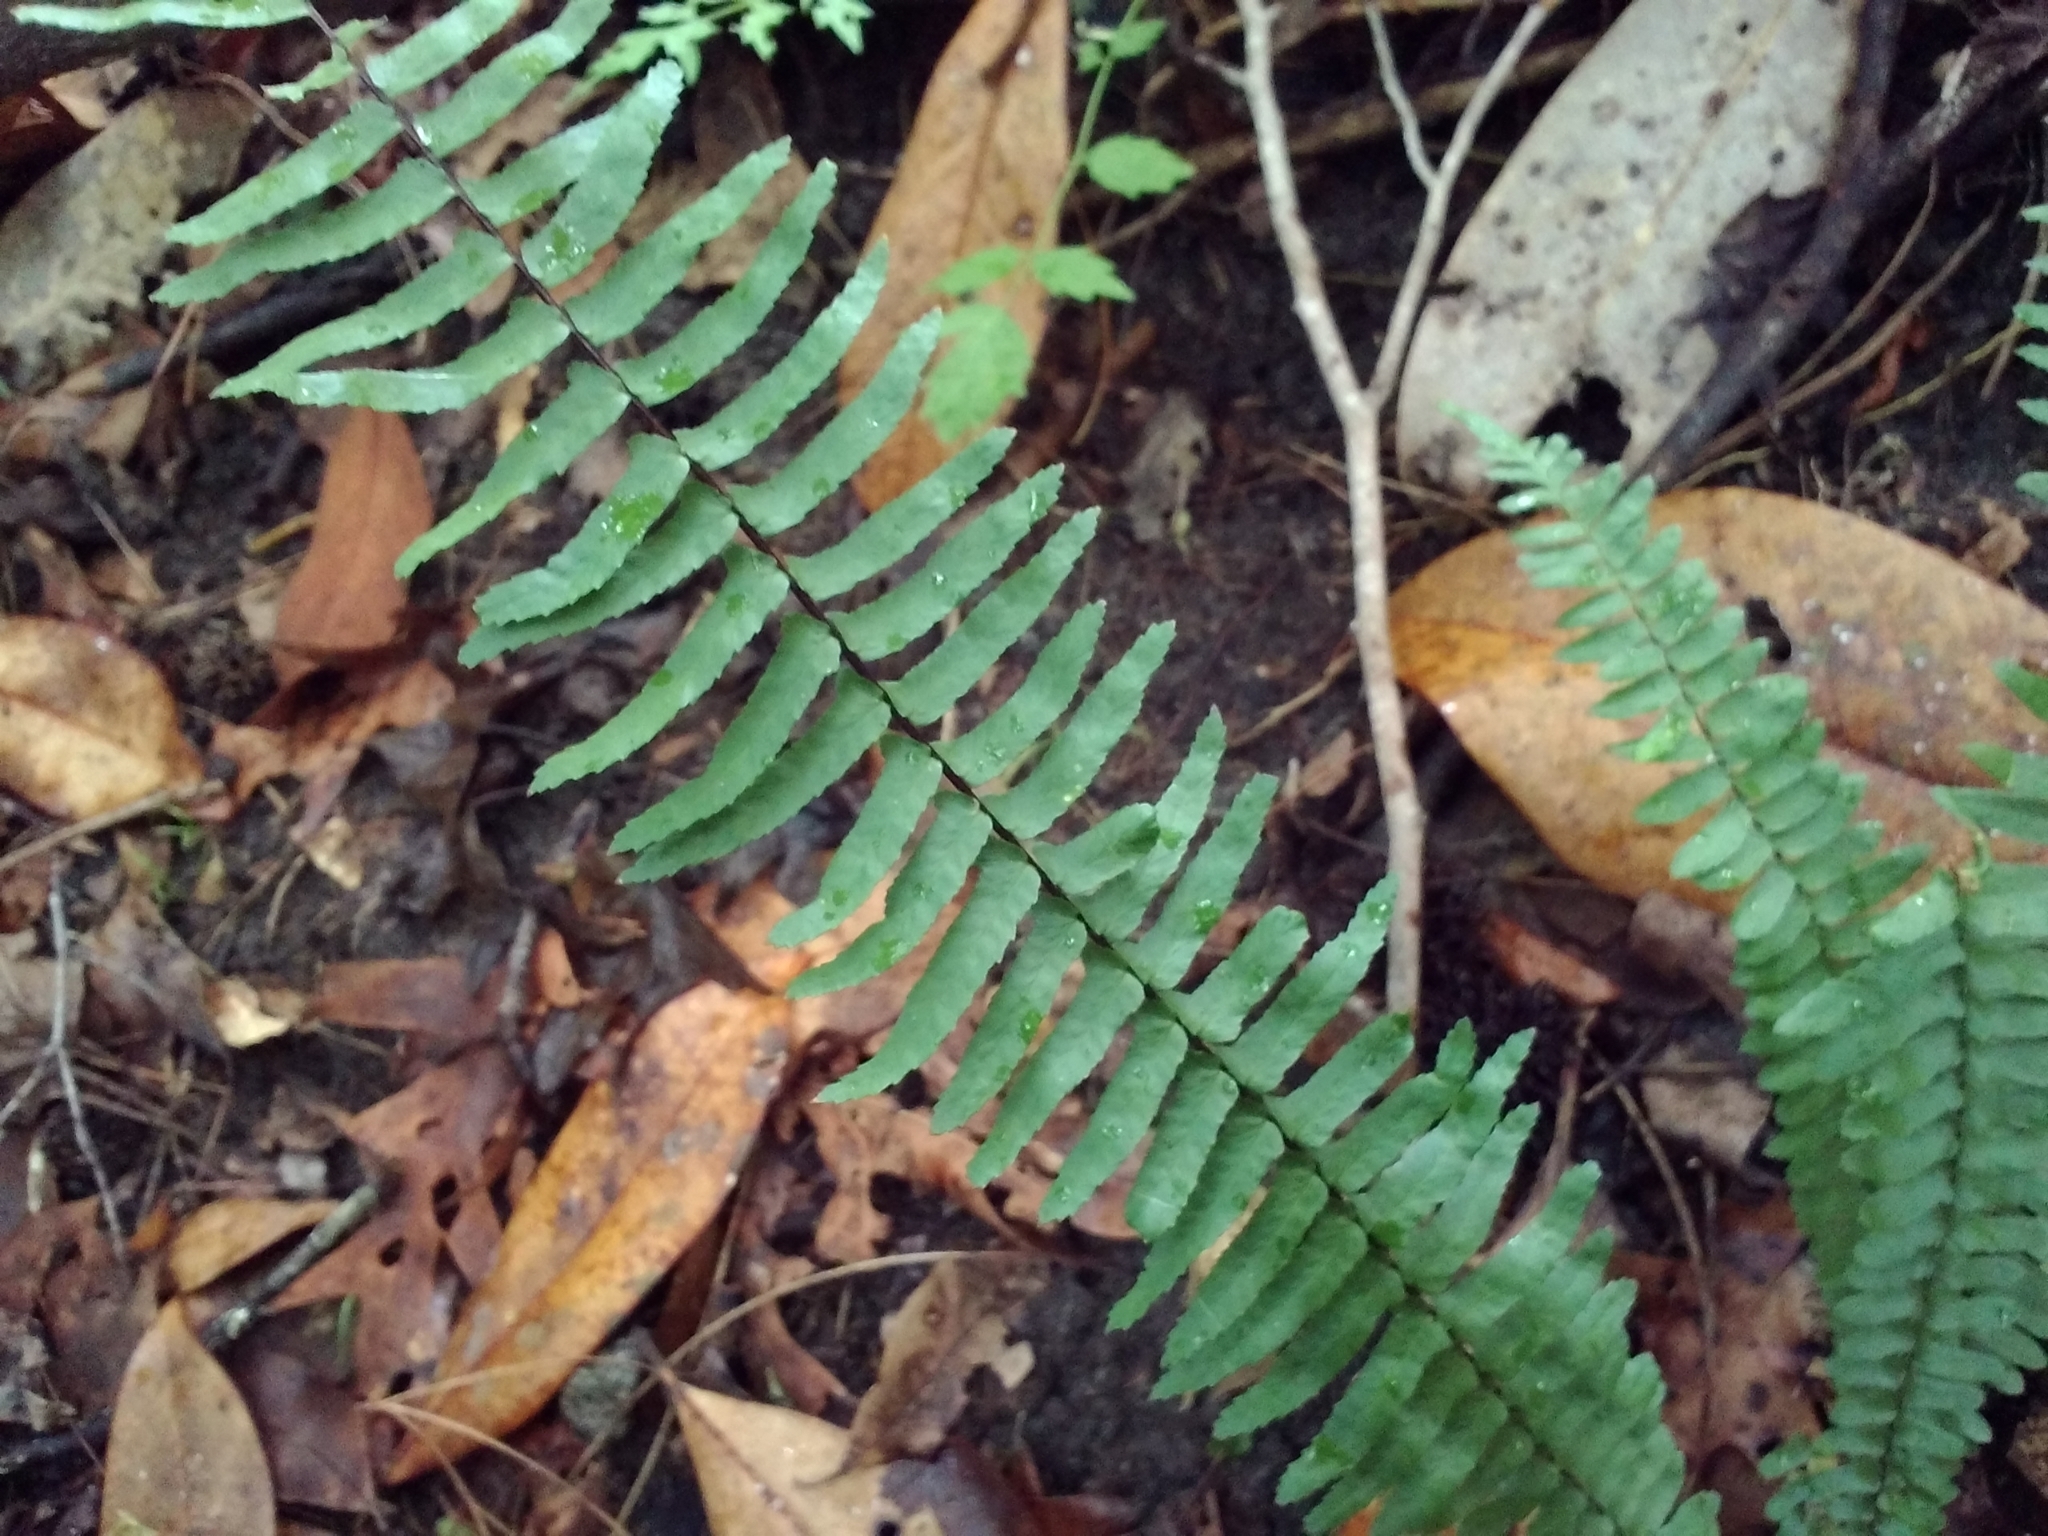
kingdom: Plantae
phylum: Tracheophyta
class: Polypodiopsida
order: Polypodiales
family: Aspleniaceae
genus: Asplenium
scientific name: Asplenium platyneuron
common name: Ebony spleenwort
